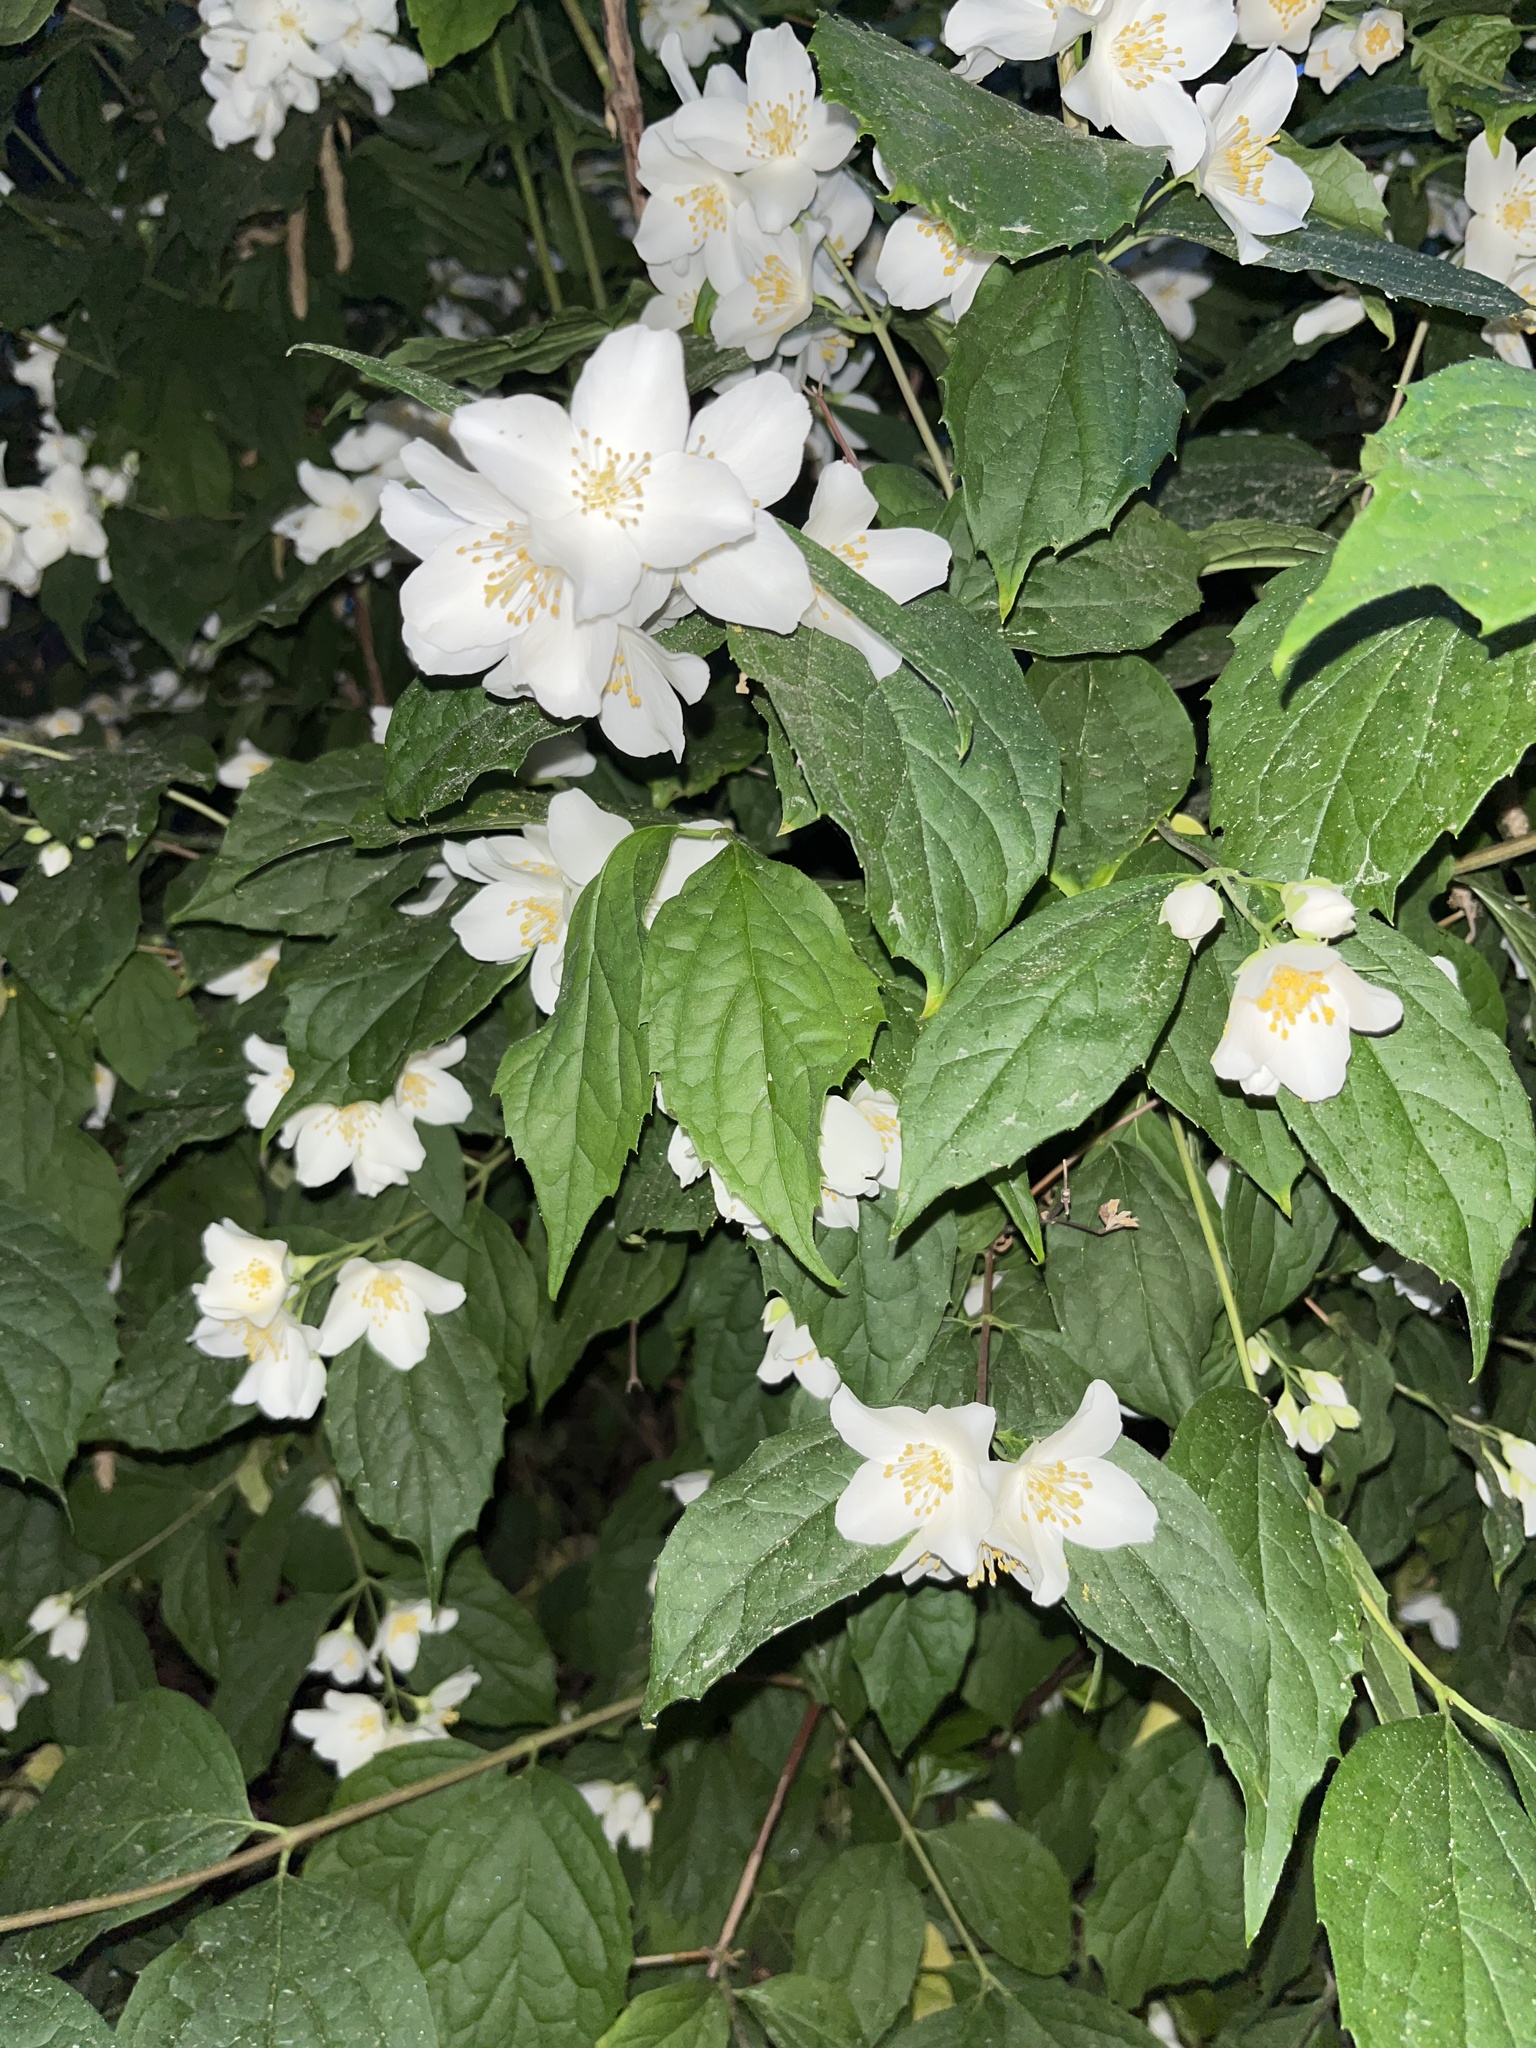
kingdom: Plantae
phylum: Tracheophyta
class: Magnoliopsida
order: Cornales
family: Hydrangeaceae
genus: Philadelphus
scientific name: Philadelphus coronarius
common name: Mock orange
